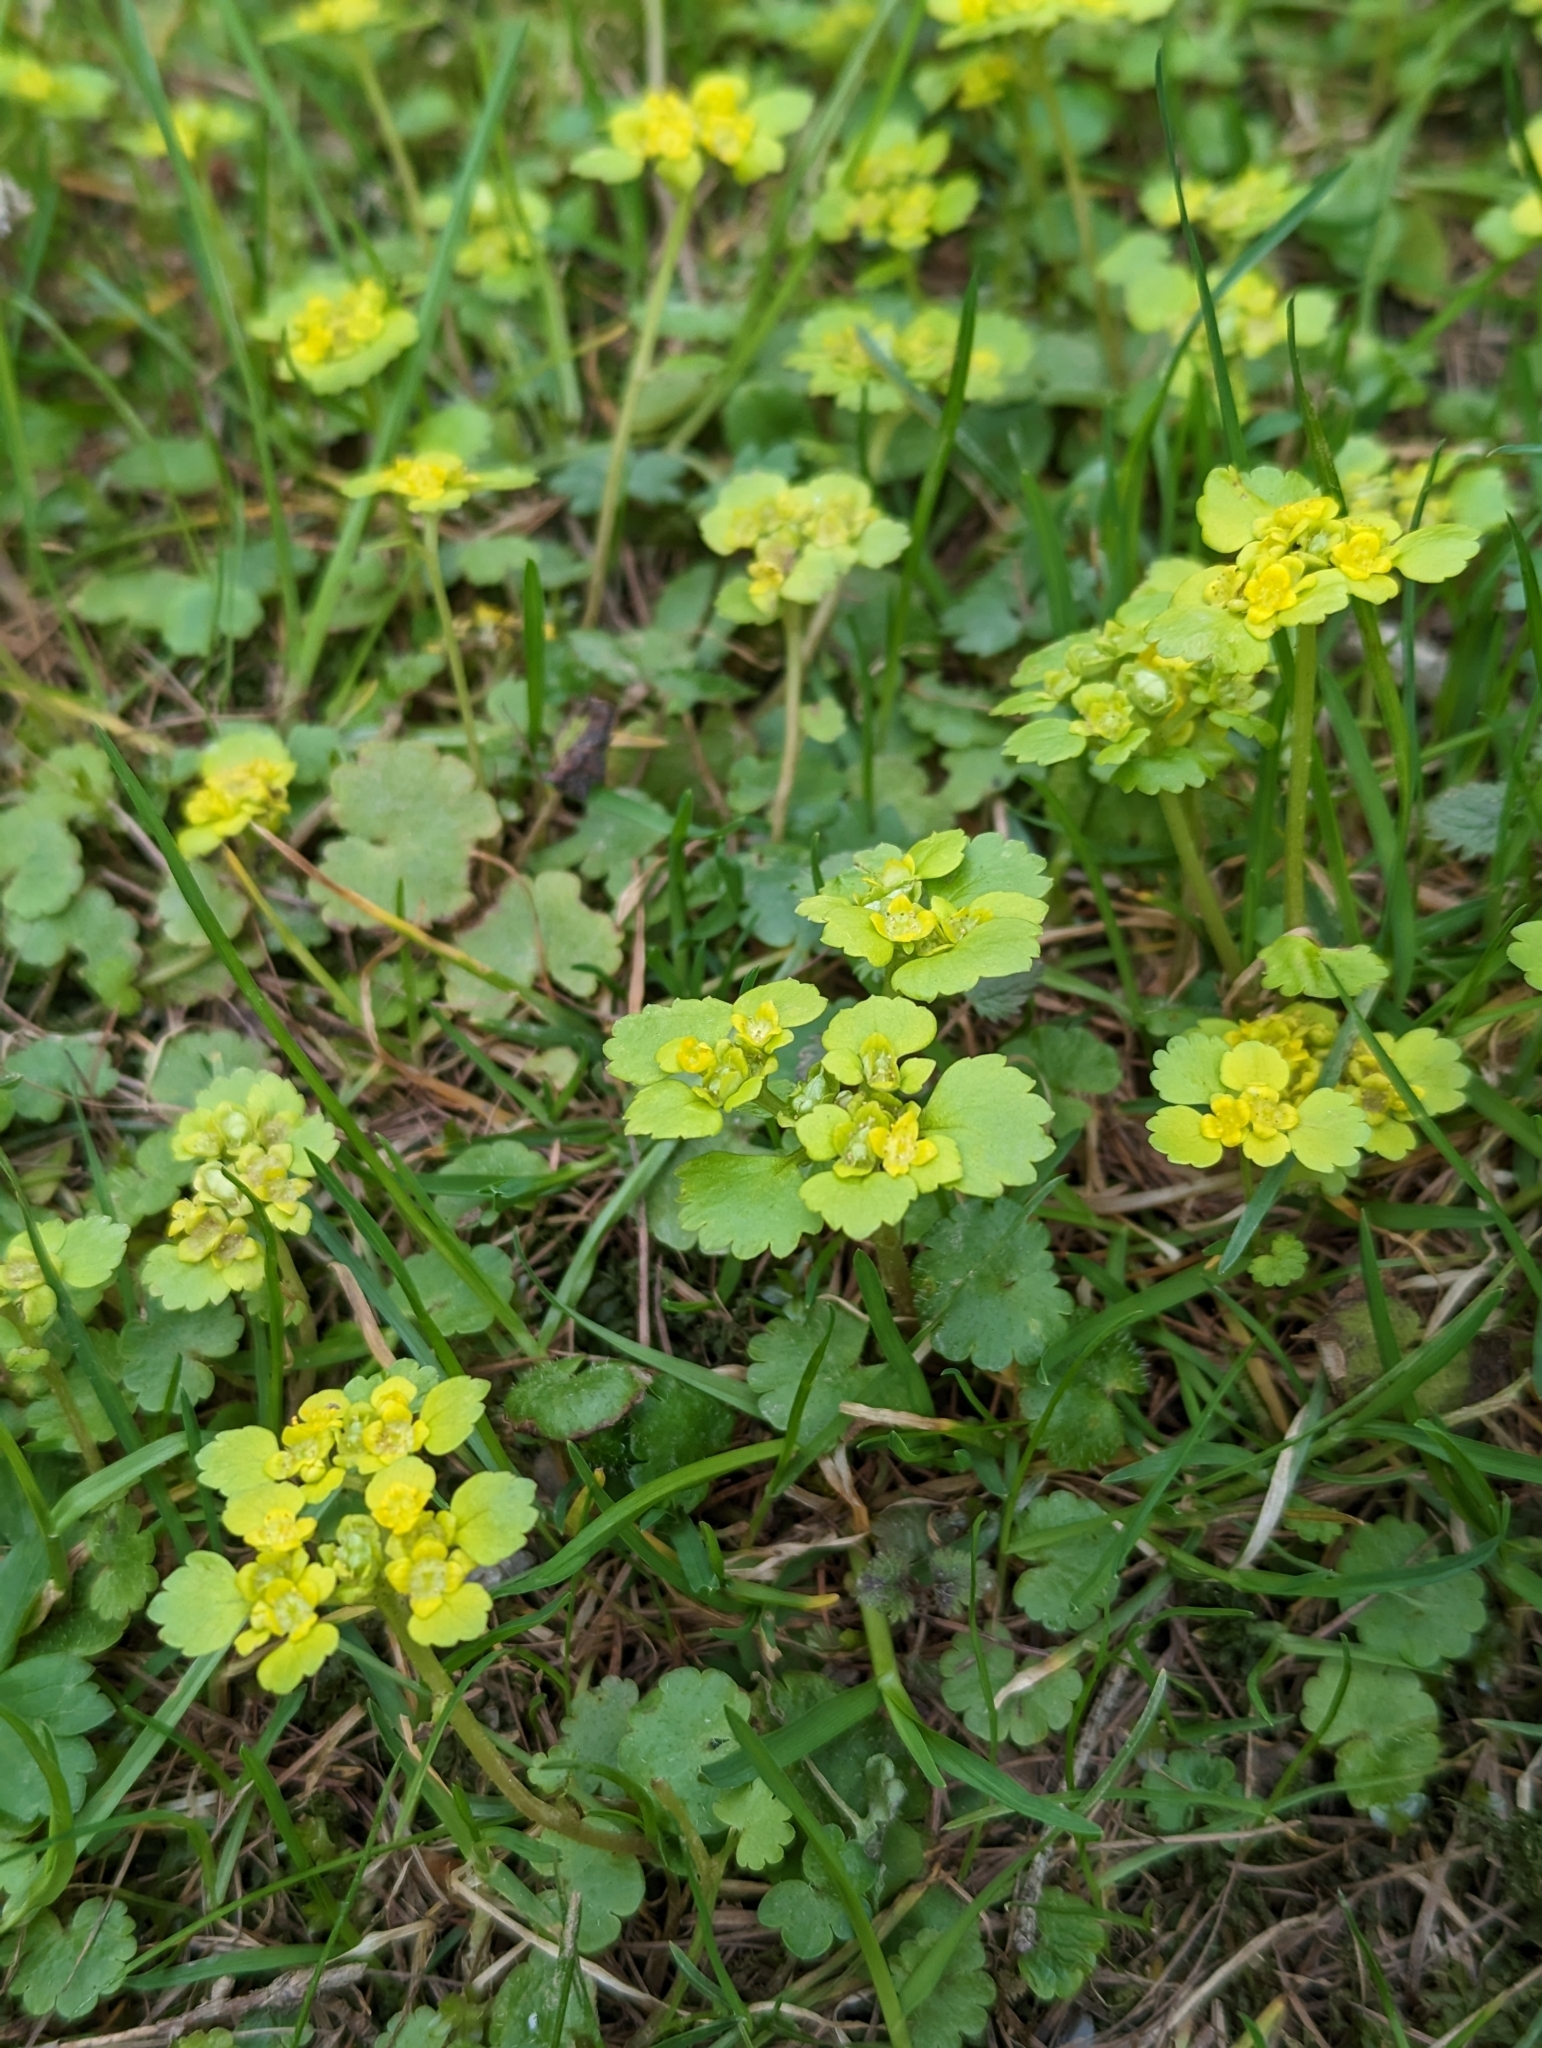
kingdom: Plantae
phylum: Tracheophyta
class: Magnoliopsida
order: Saxifragales
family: Saxifragaceae
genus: Chrysosplenium
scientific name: Chrysosplenium alternifolium
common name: Alternate-leaved golden-saxifrage
